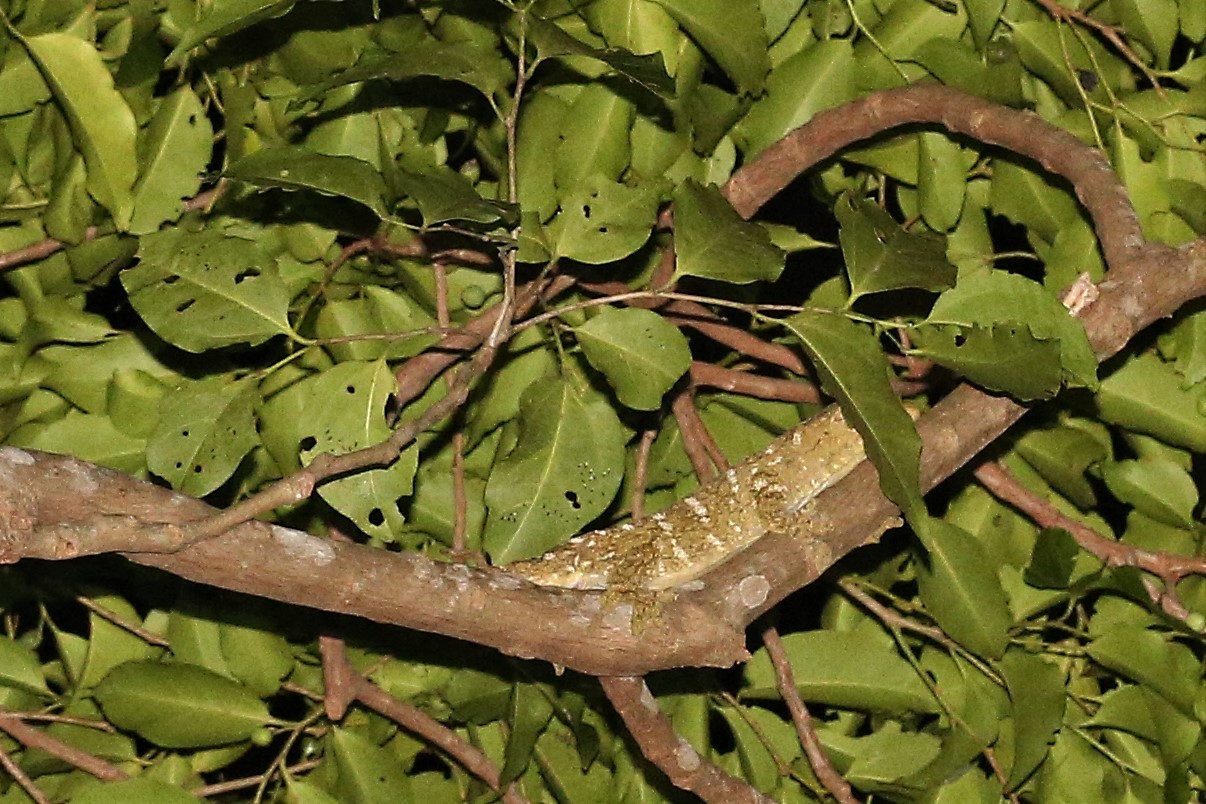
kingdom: Animalia
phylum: Chordata
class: Squamata
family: Diplodactylidae
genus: Rhacodactylus
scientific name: Rhacodactylus leachianus
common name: New caledonia giant gecko
